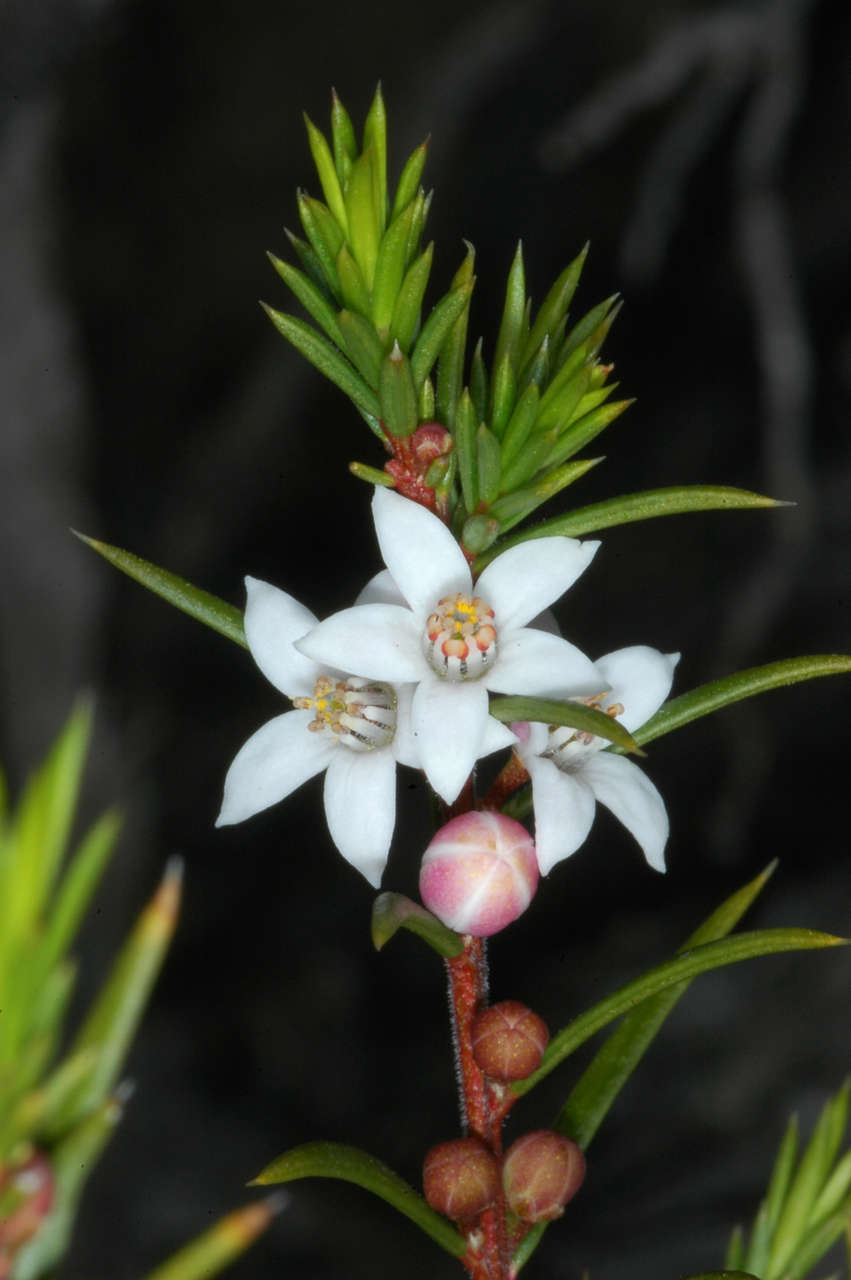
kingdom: Plantae
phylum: Tracheophyta
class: Magnoliopsida
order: Sapindales
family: Rutaceae
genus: Philotheca
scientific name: Philotheca pungens
